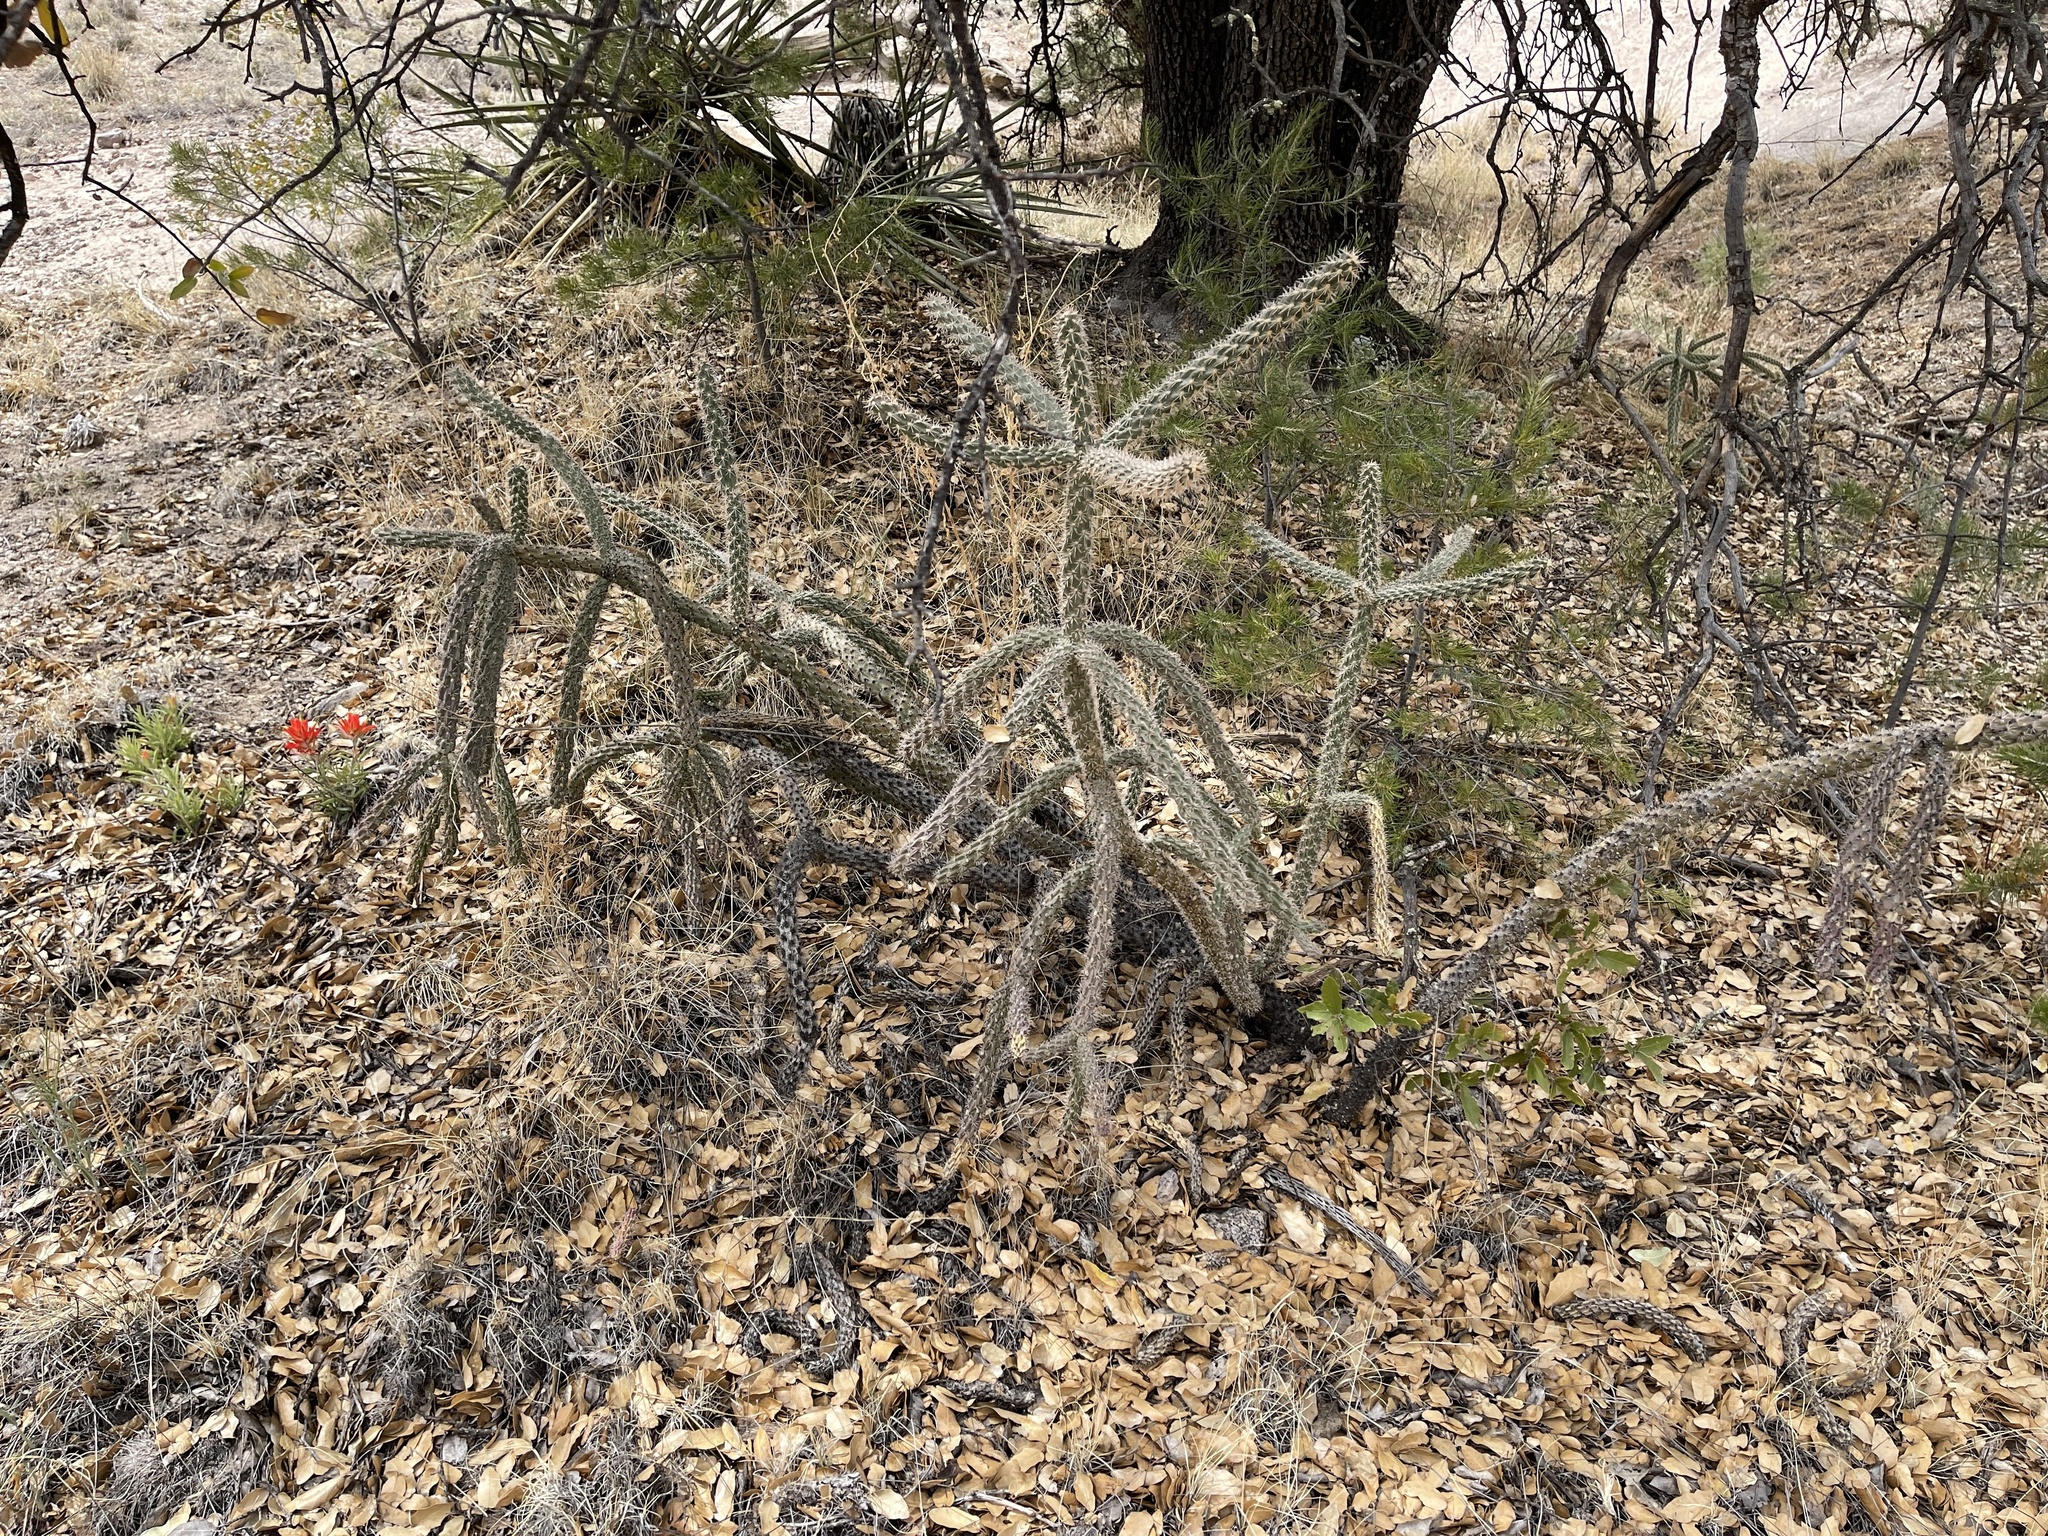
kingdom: Plantae
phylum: Tracheophyta
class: Magnoliopsida
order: Caryophyllales
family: Cactaceae
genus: Cylindropuntia
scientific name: Cylindropuntia imbricata
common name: Candelabrum cactus
